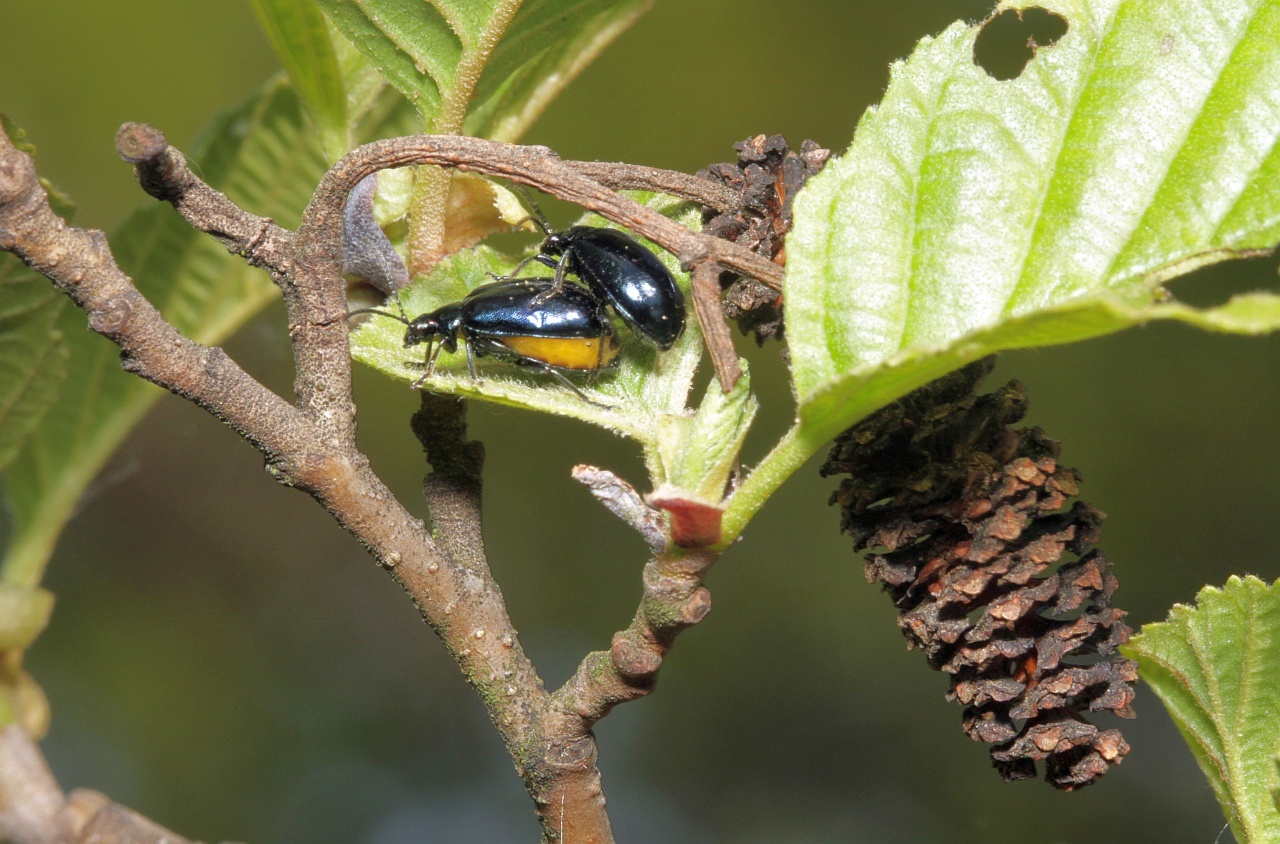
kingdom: Animalia
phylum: Arthropoda
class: Insecta
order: Coleoptera
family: Chrysomelidae
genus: Agelastica
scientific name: Agelastica alni
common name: Alder leaf beetle
